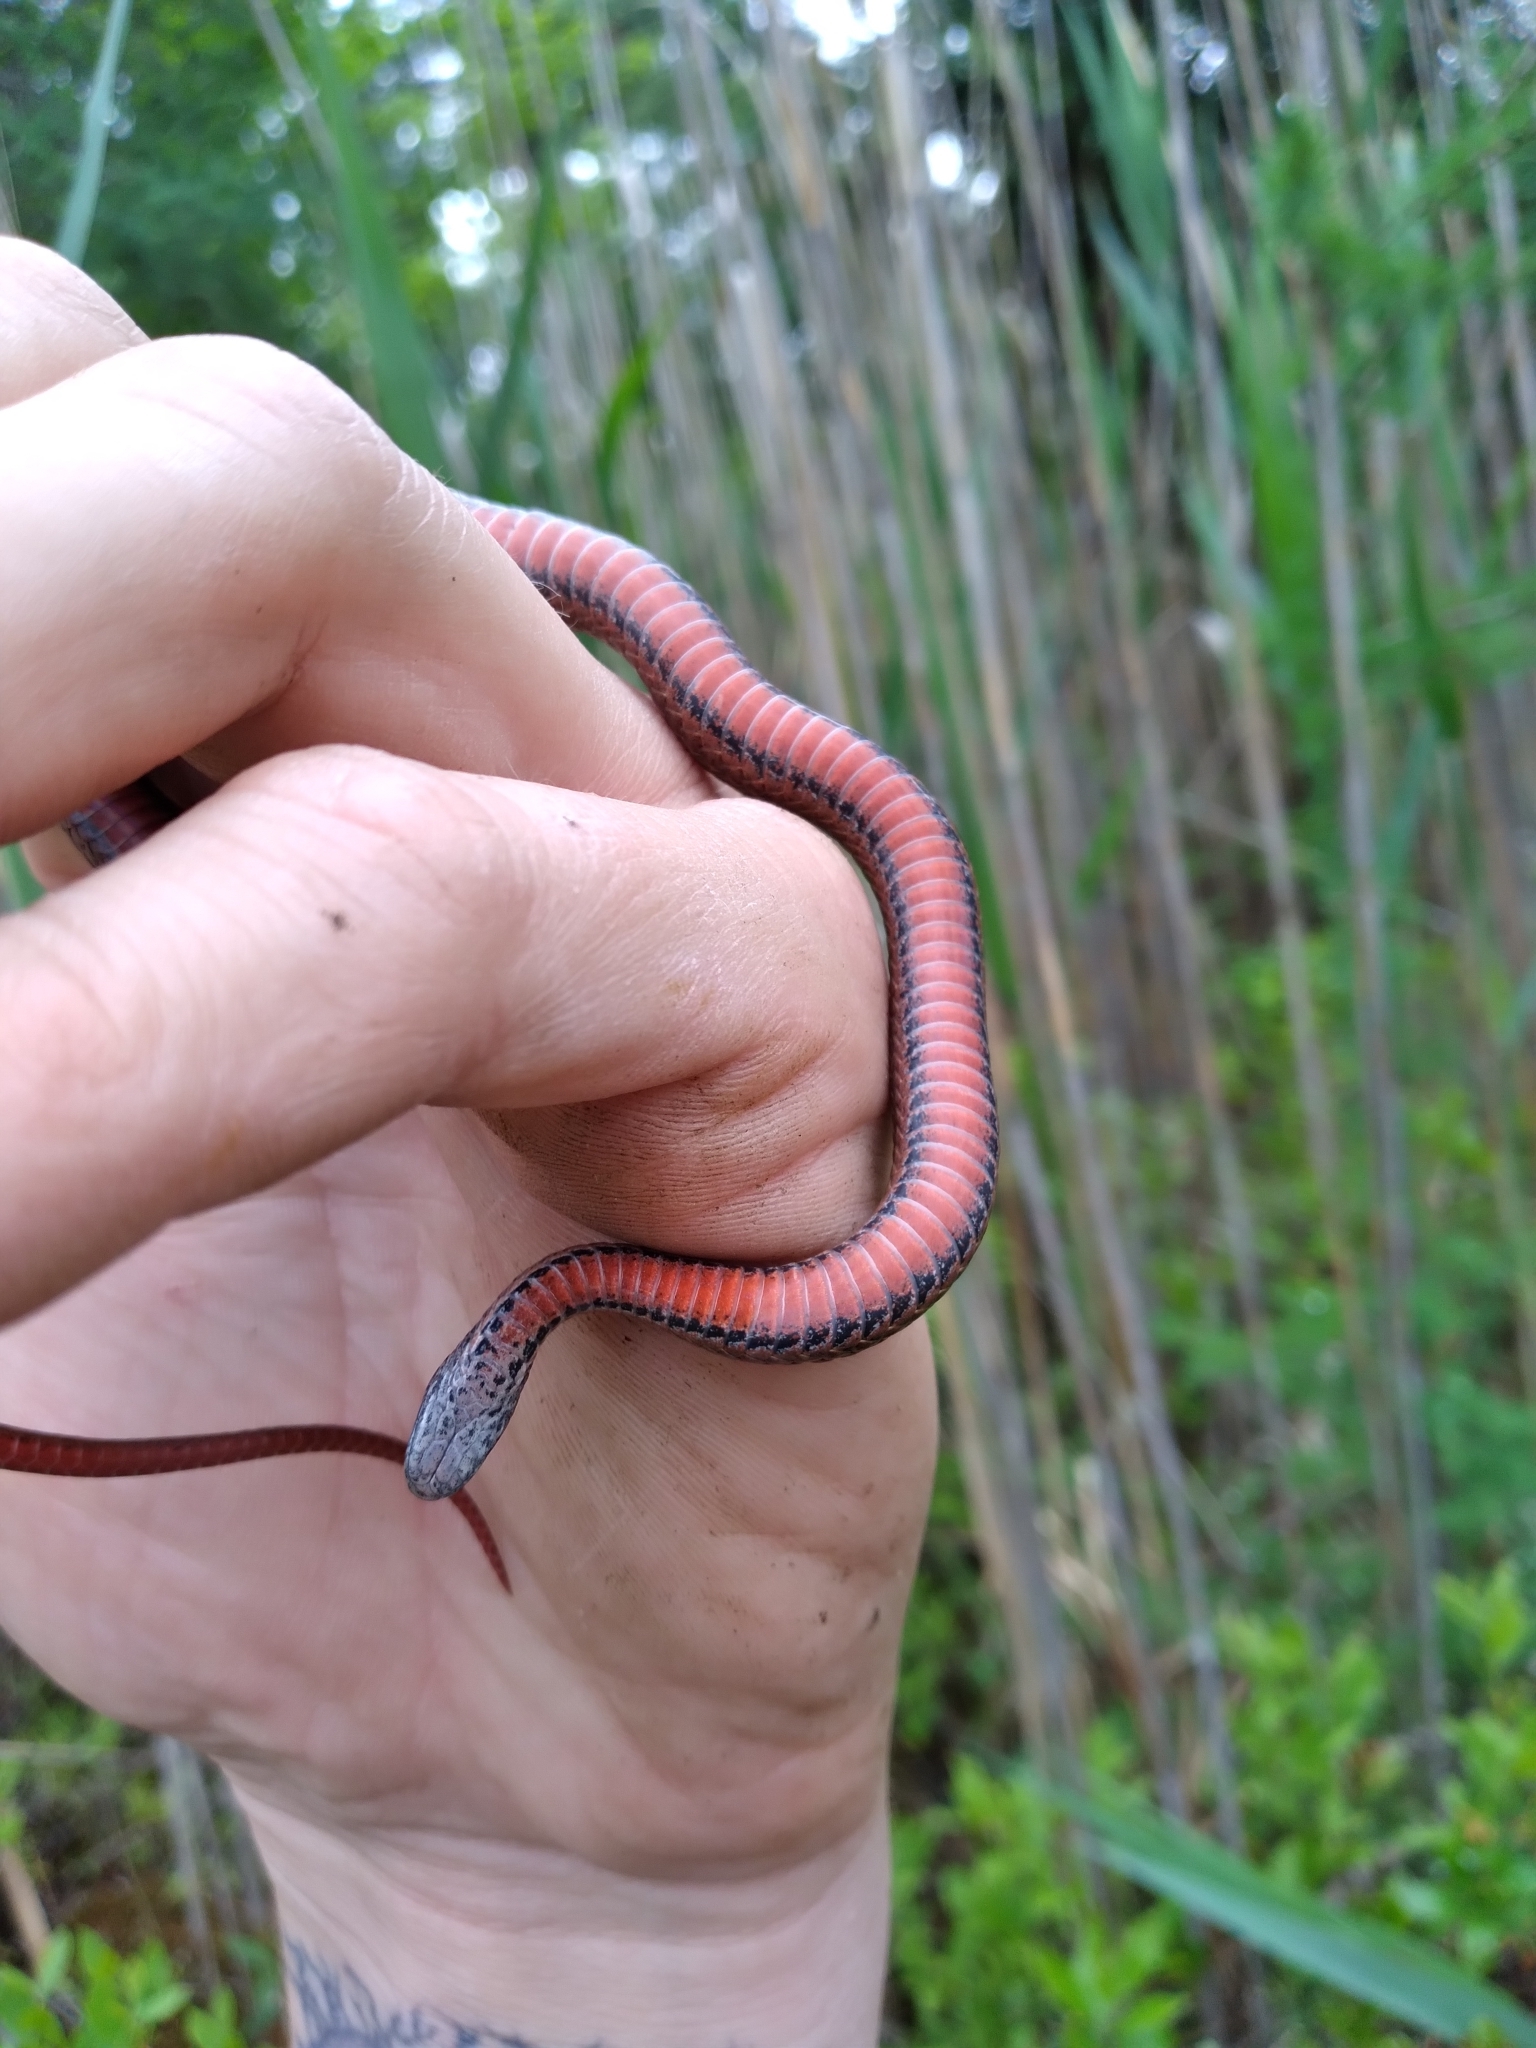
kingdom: Animalia
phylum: Chordata
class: Squamata
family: Colubridae
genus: Storeria
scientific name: Storeria occipitomaculata
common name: Redbelly snake
